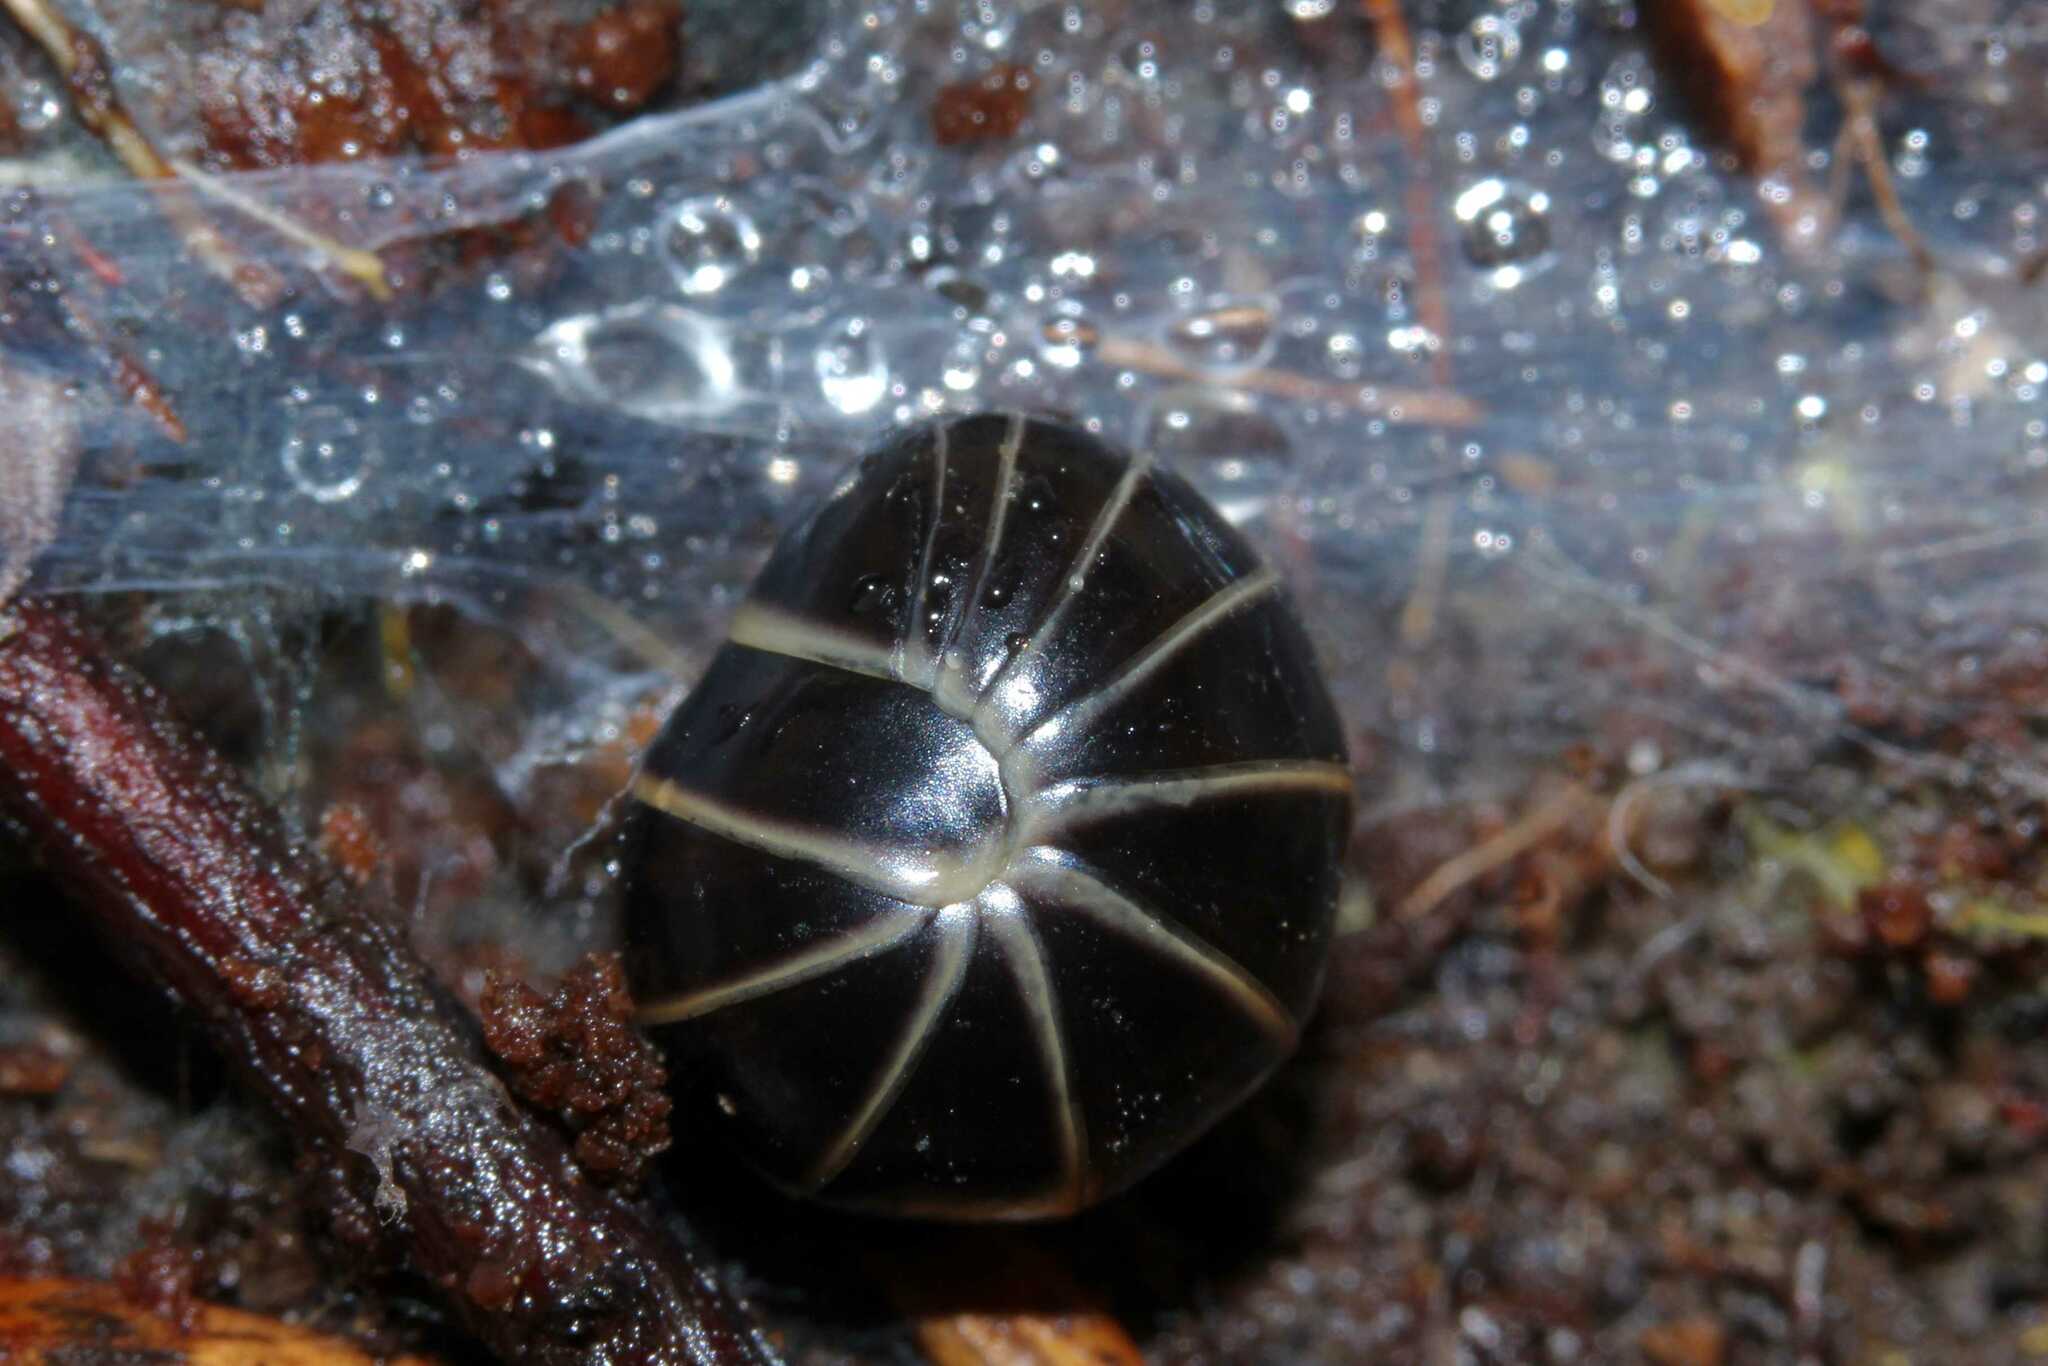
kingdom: Animalia
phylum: Arthropoda
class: Diplopoda
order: Glomerida
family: Glomeridae
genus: Glomeris
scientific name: Glomeris marginata
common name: Bordered pill millipede
